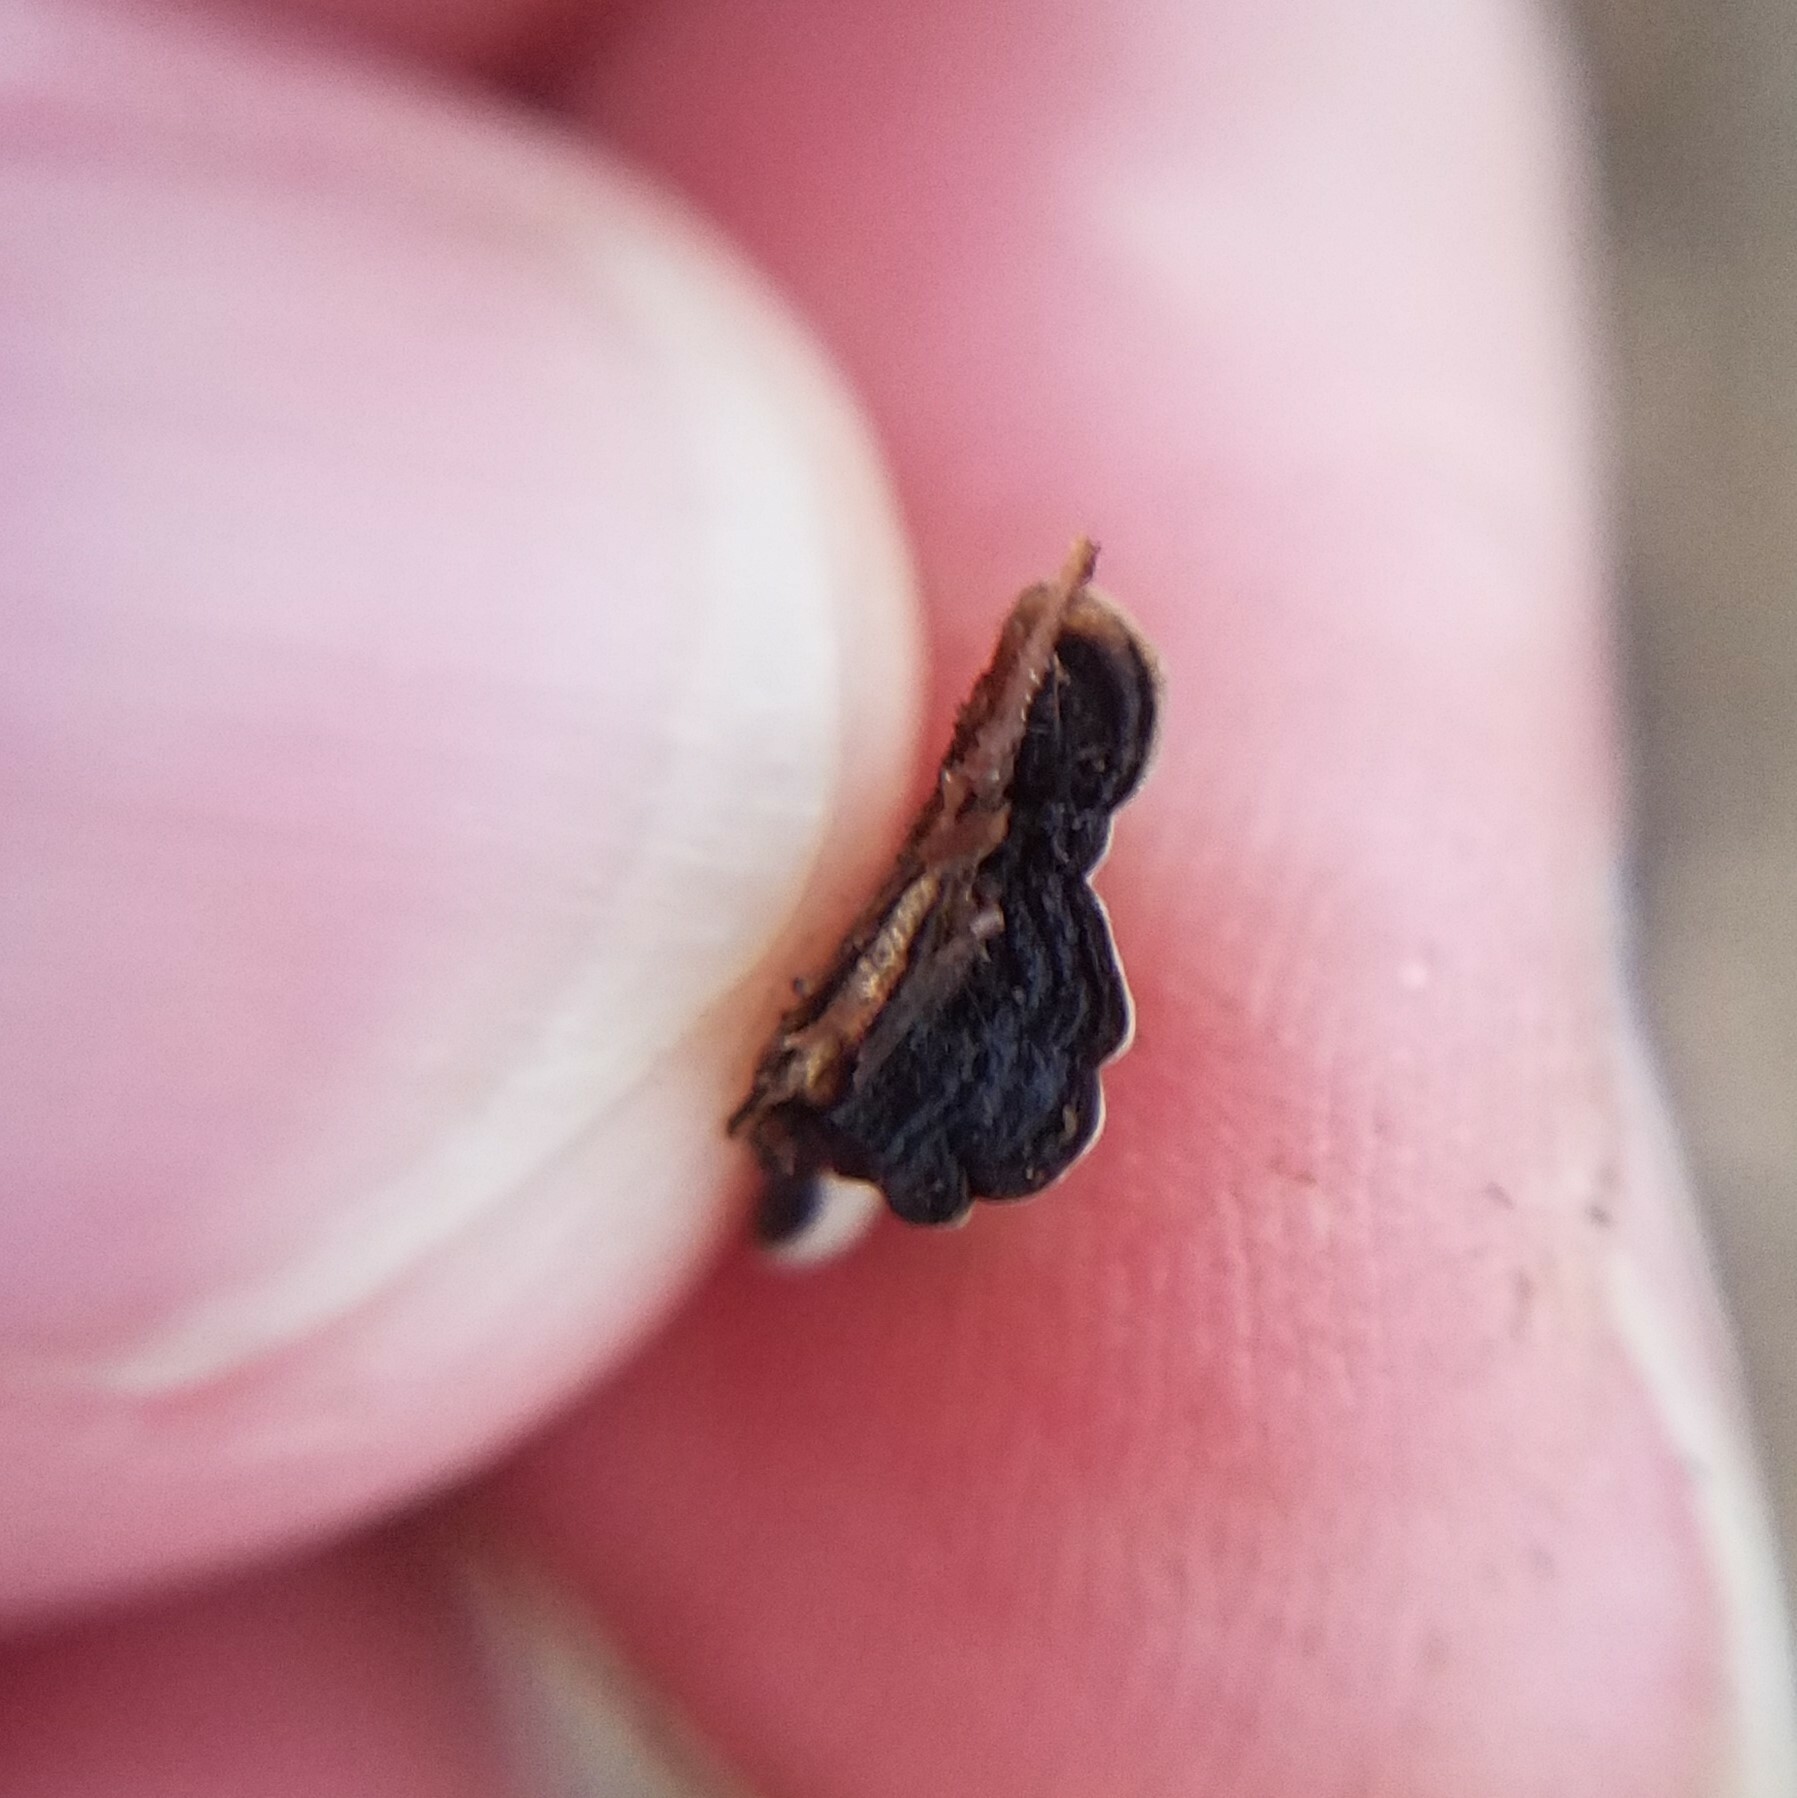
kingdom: Fungi
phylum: Basidiomycota
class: Agaricomycetes
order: Russulales
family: Stereaceae
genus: Xylobolus
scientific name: Xylobolus frustulatus
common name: Ceramic parchment
